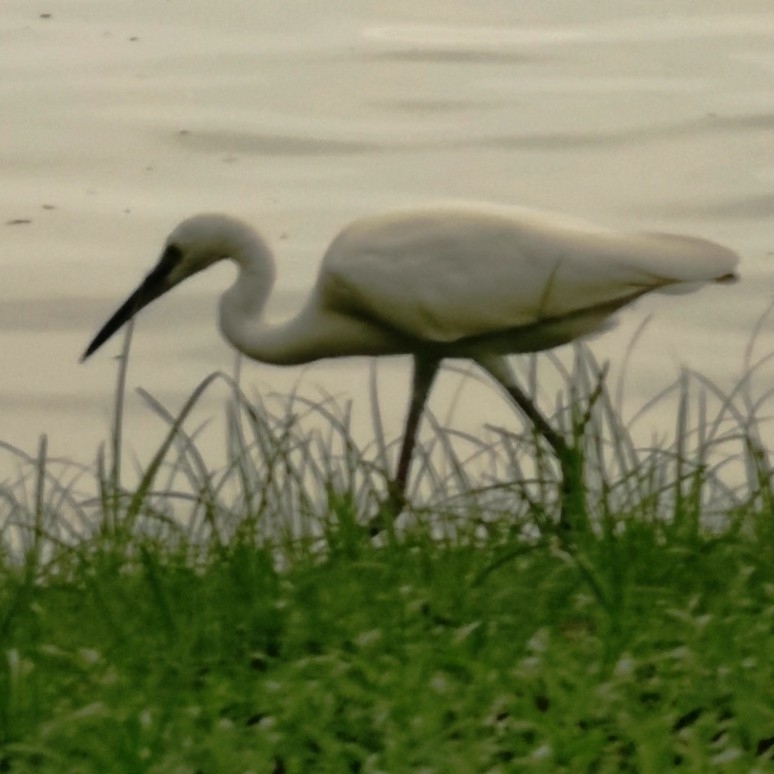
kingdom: Animalia
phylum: Chordata
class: Aves
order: Pelecaniformes
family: Ardeidae
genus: Egretta
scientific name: Egretta garzetta
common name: Little egret
